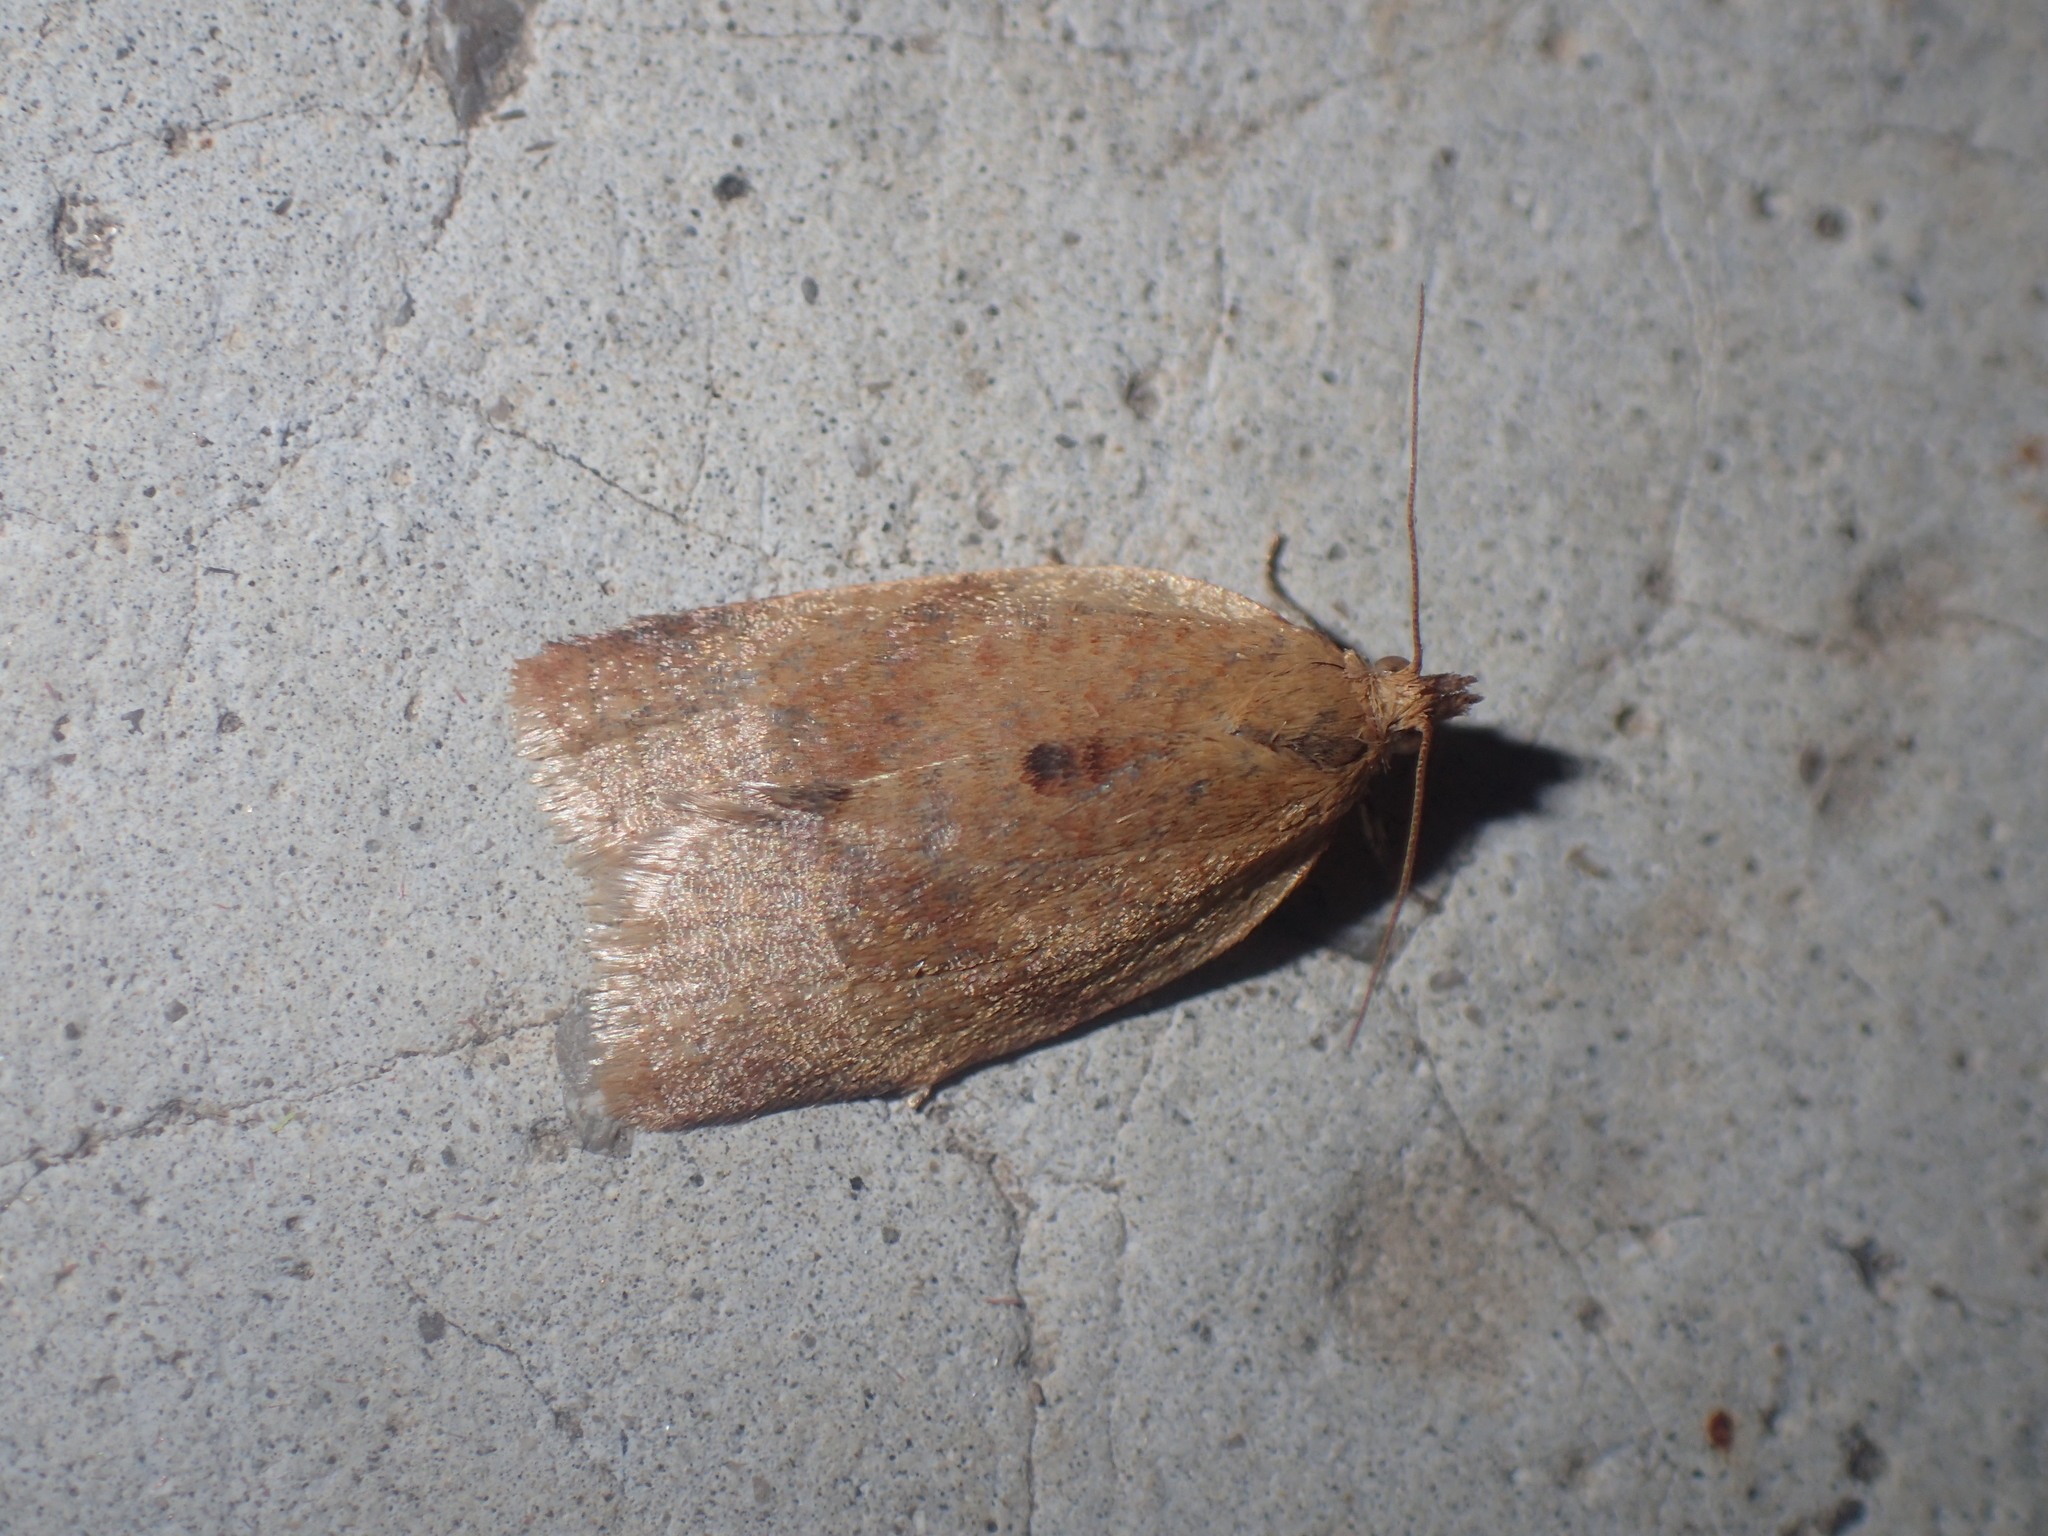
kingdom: Animalia
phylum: Arthropoda
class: Insecta
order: Lepidoptera
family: Tortricidae
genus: Clepsis
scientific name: Clepsis consimilana
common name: Privet tortrix
